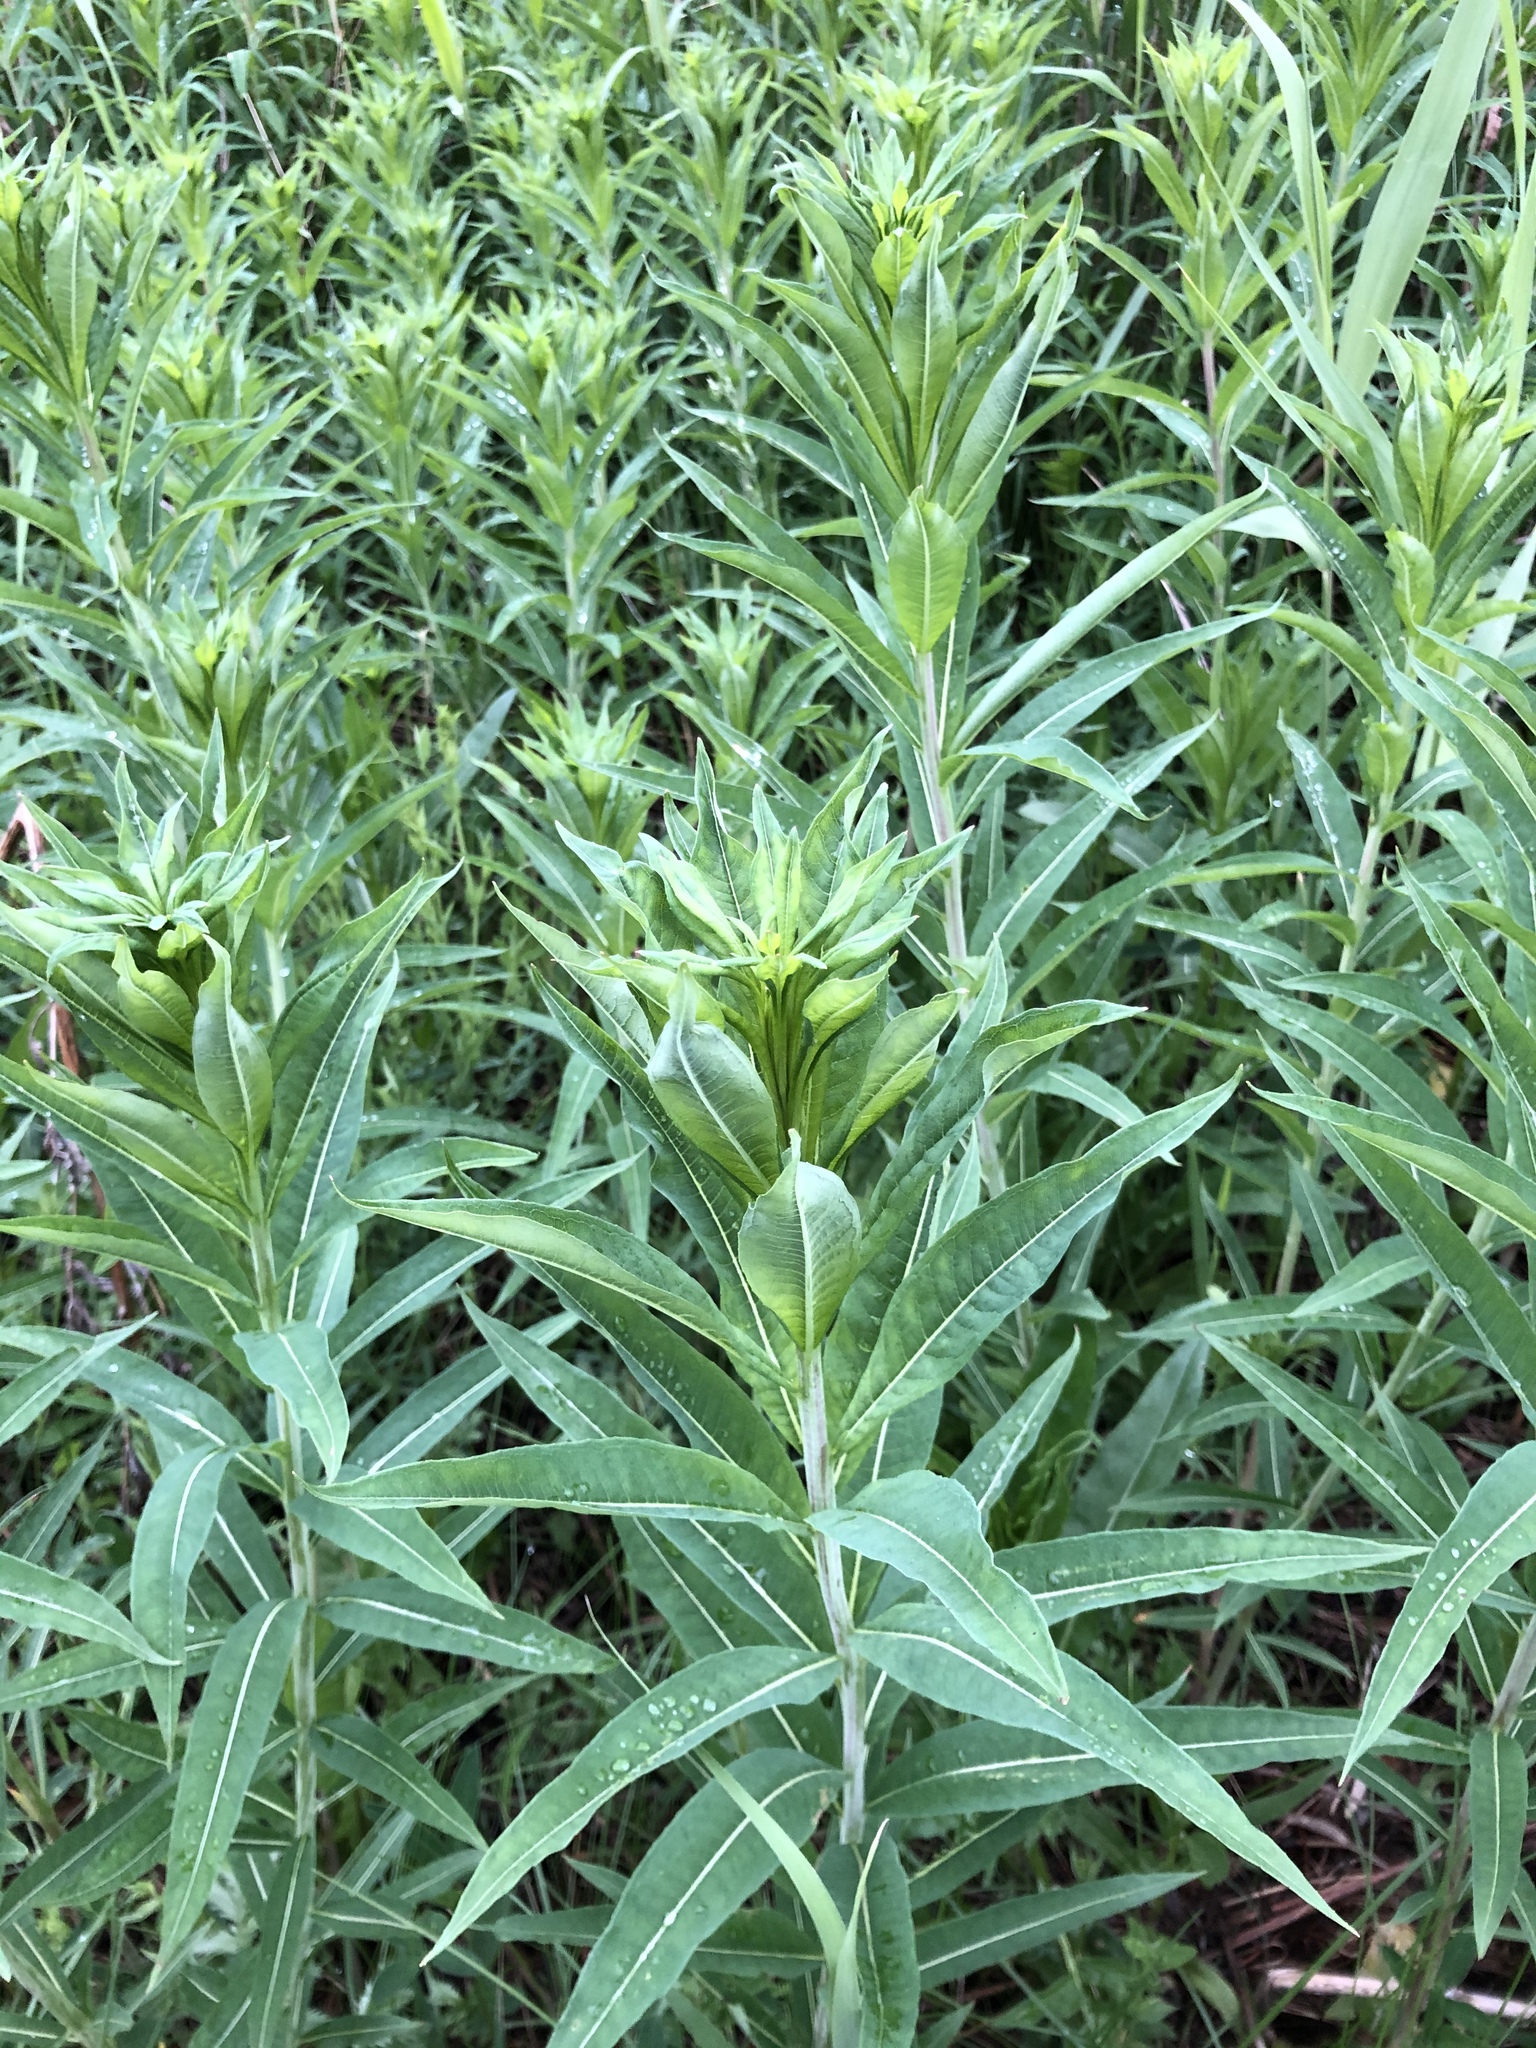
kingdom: Plantae
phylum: Tracheophyta
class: Magnoliopsida
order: Myrtales
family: Onagraceae
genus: Chamaenerion
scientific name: Chamaenerion angustifolium
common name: Fireweed
